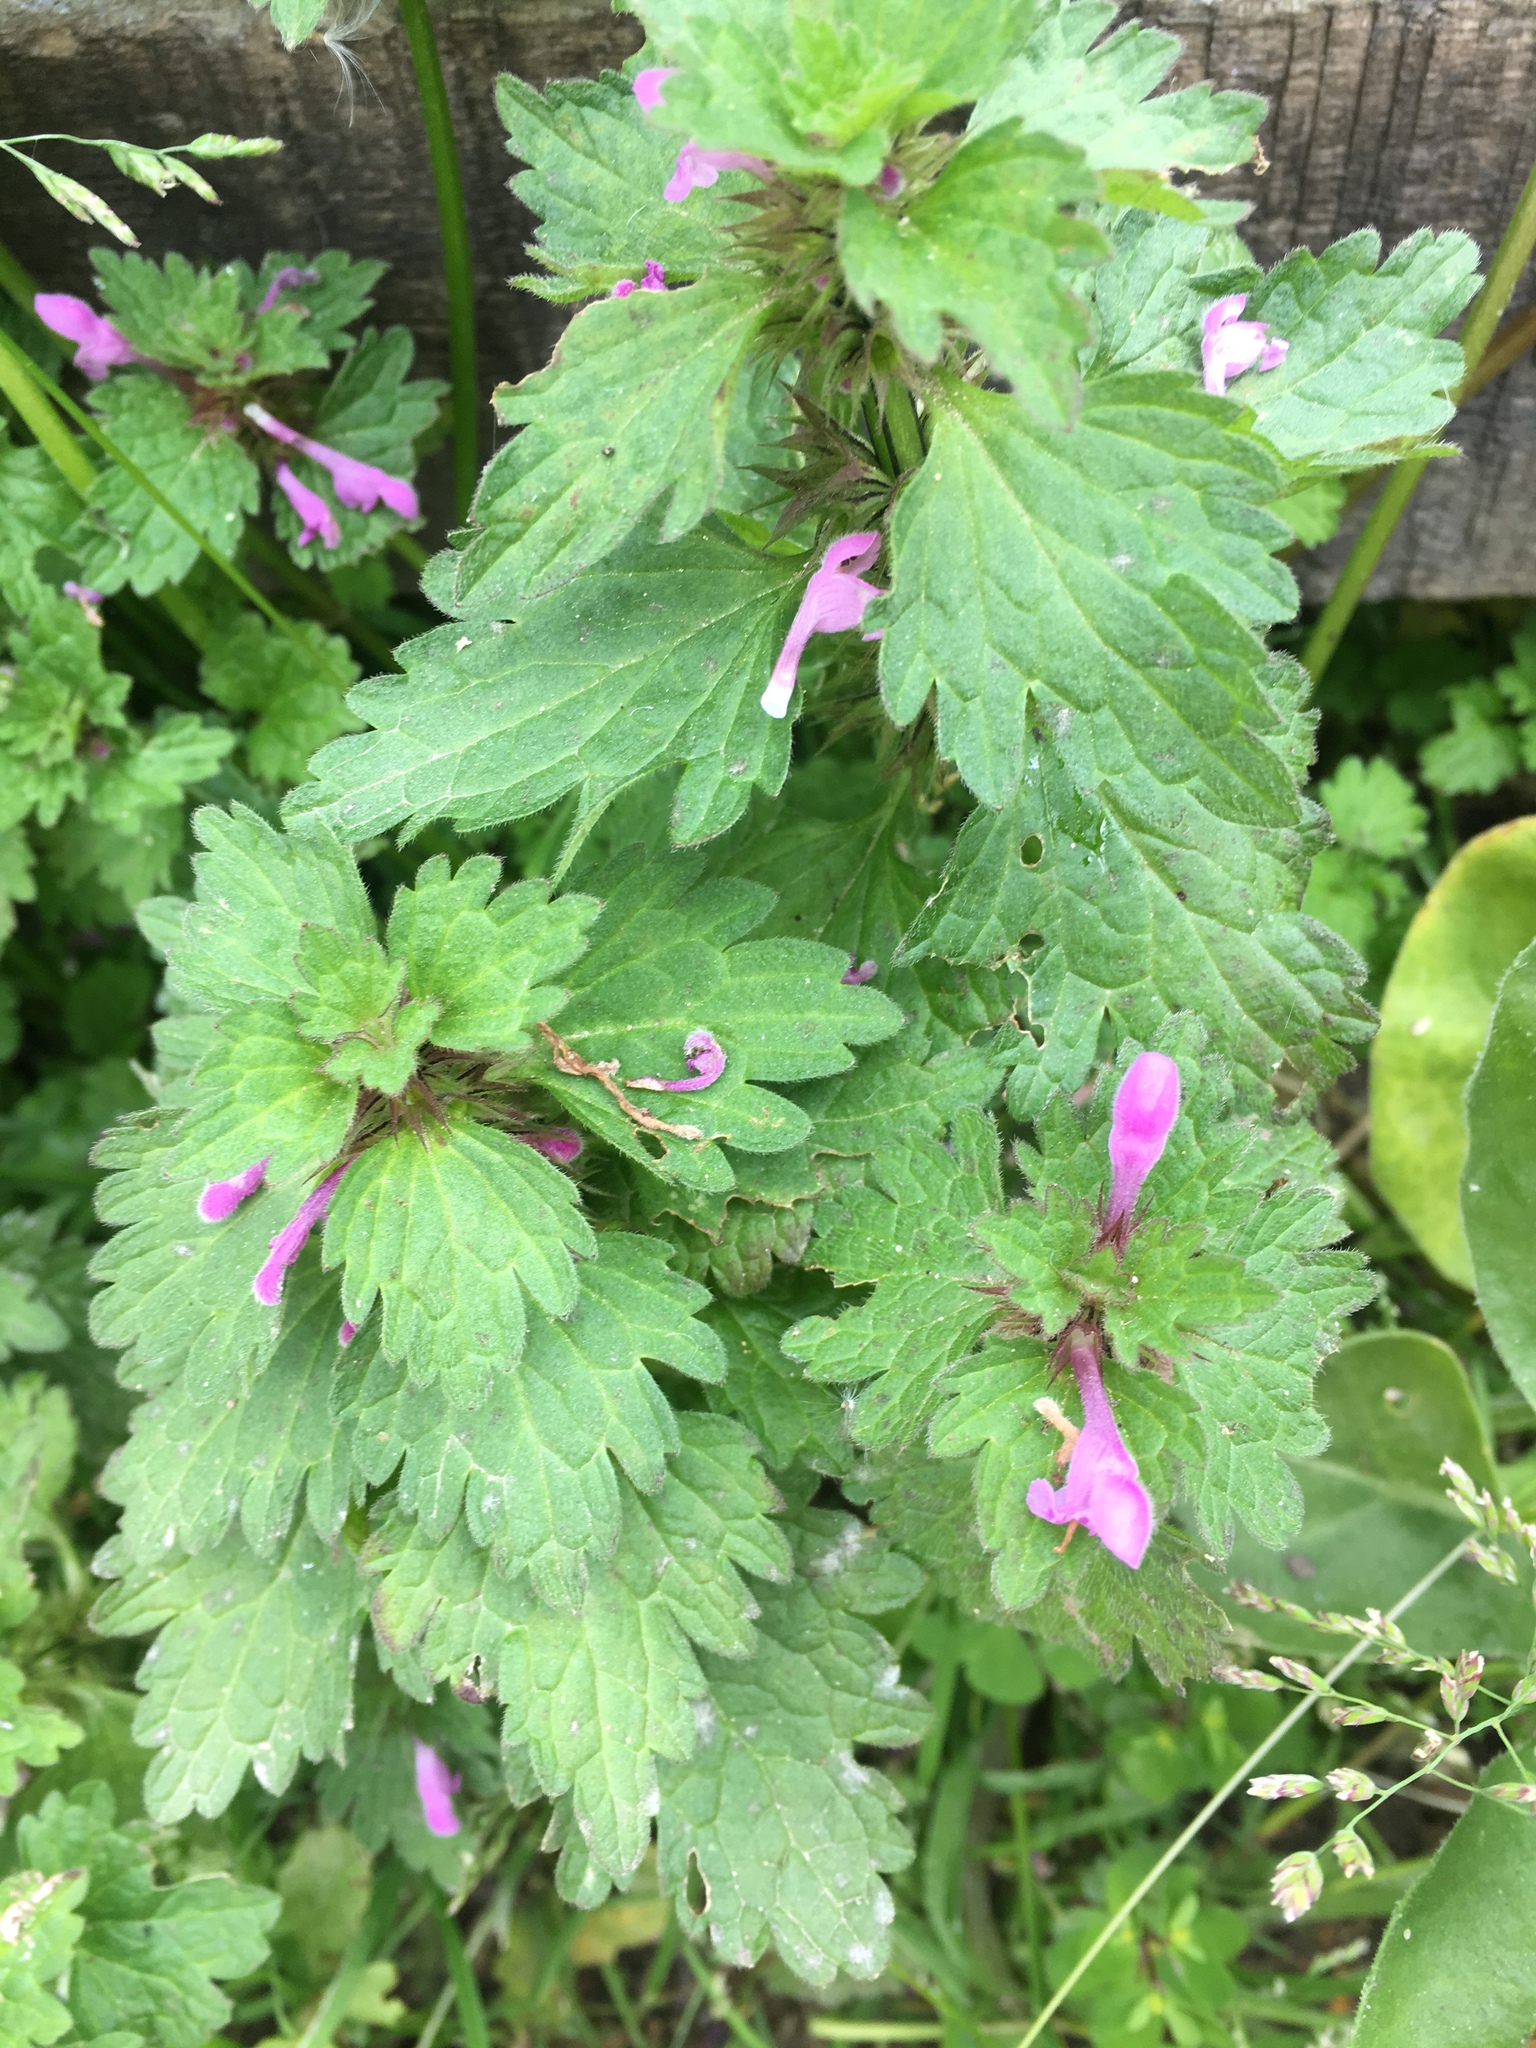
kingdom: Plantae
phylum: Tracheophyta
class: Magnoliopsida
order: Lamiales
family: Lamiaceae
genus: Lamium
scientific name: Lamium hybridum
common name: Cut-leaved dead-nettle
